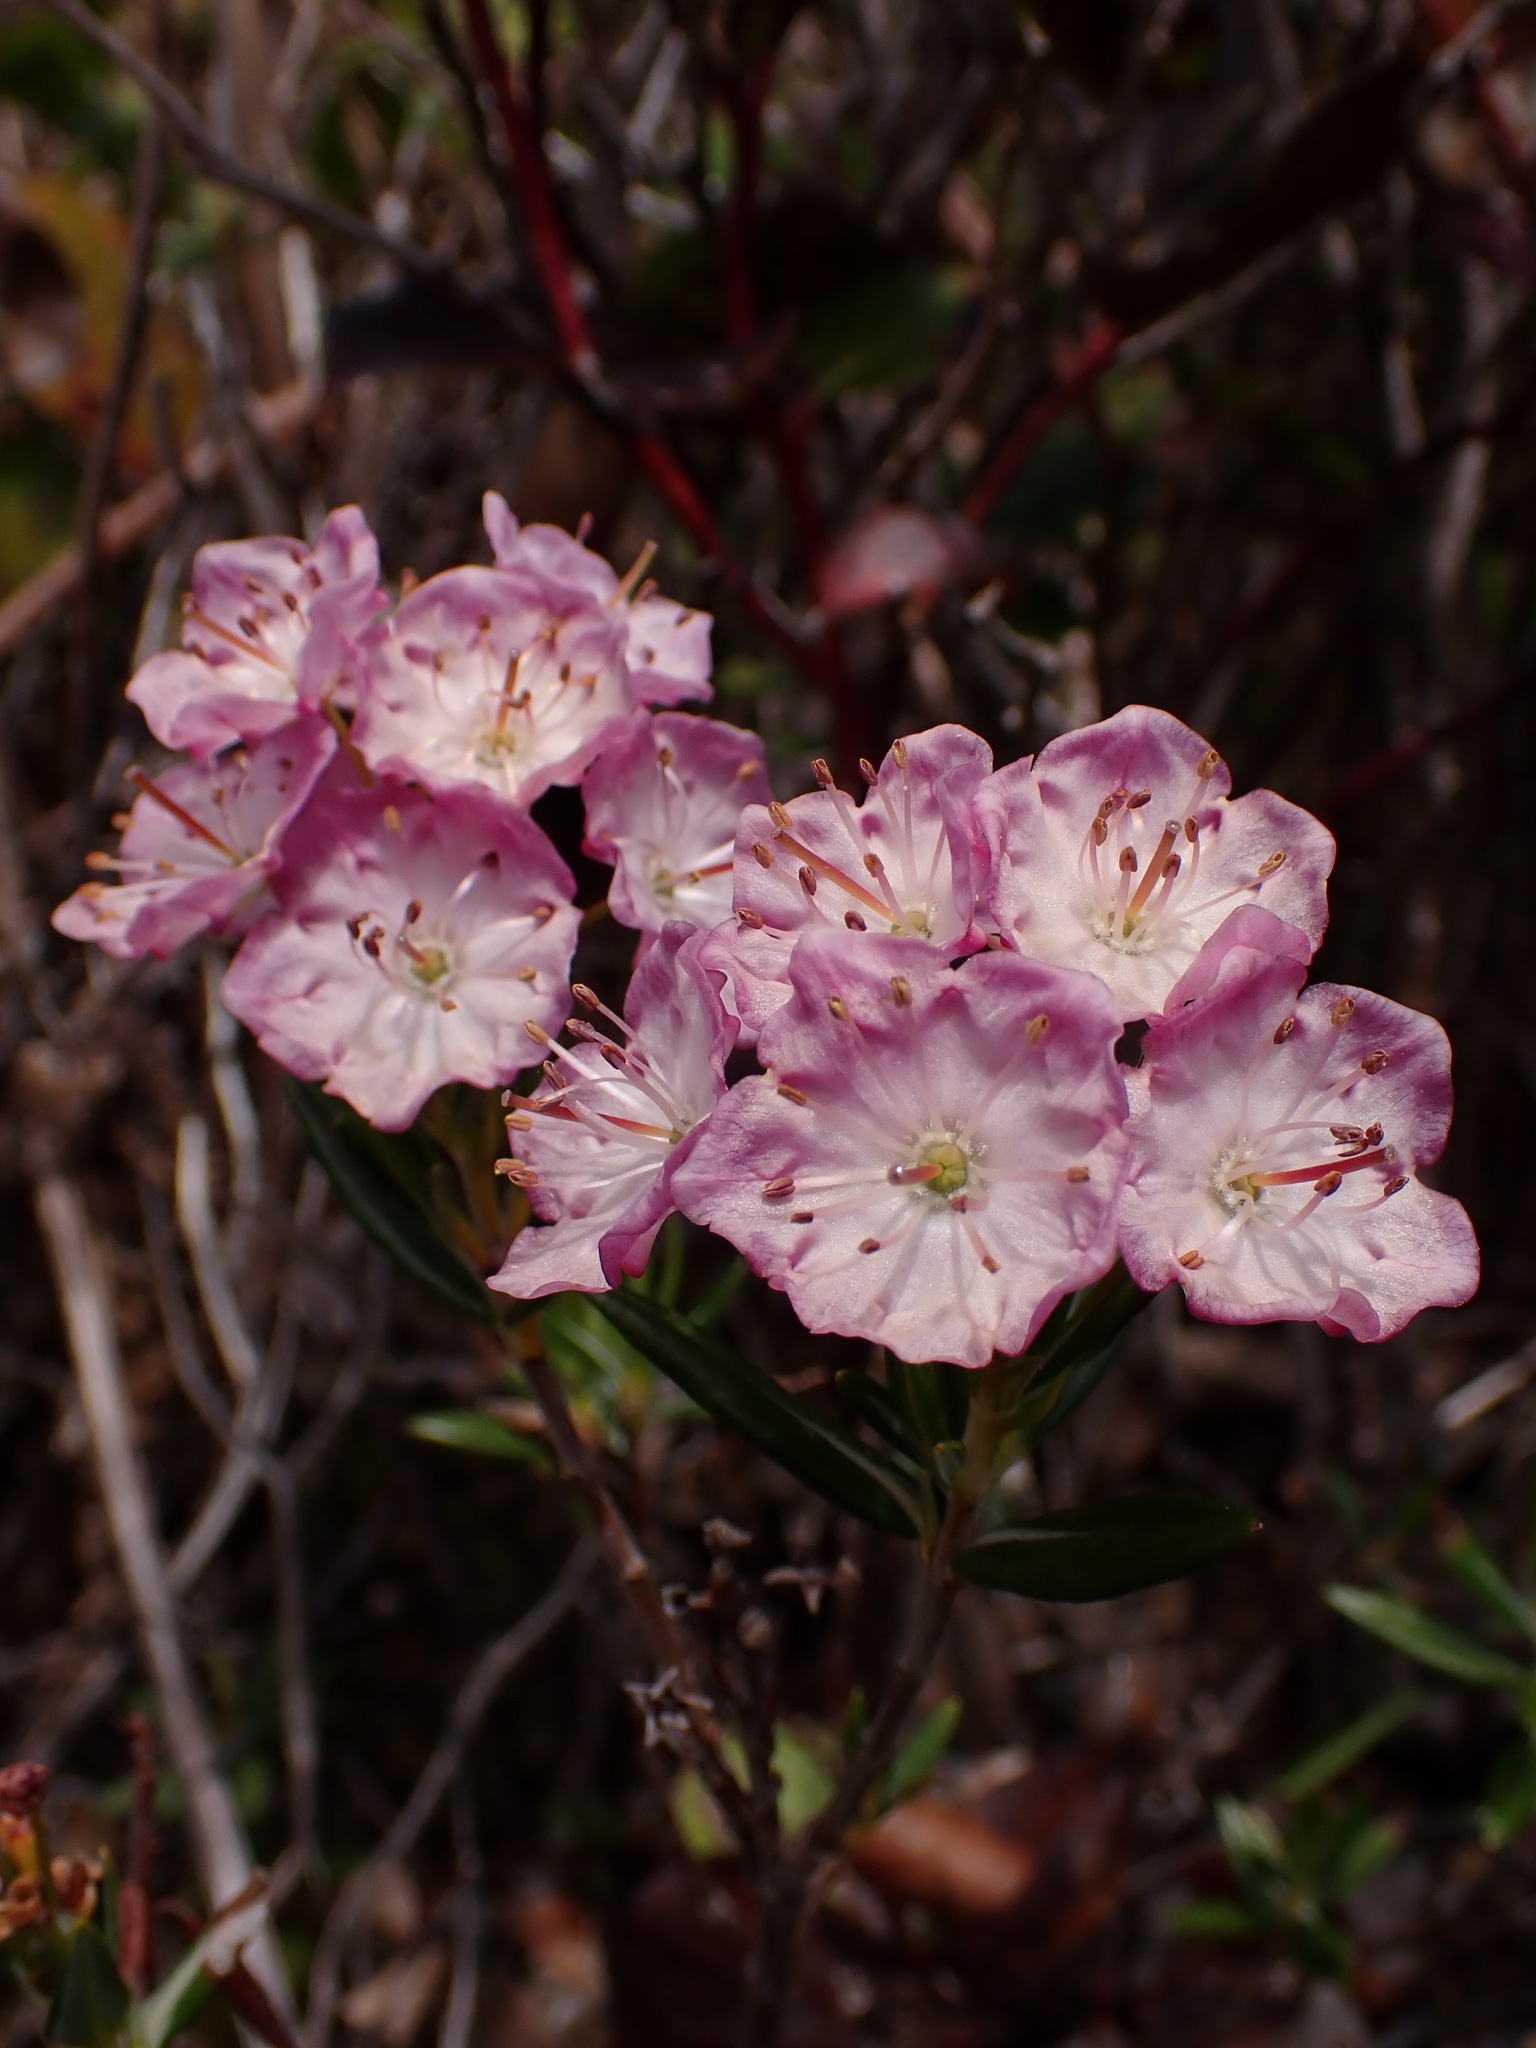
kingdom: Plantae
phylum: Tracheophyta
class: Magnoliopsida
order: Ericales
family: Ericaceae
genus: Kalmia
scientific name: Kalmia microphylla
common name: Alpine bog laurel
